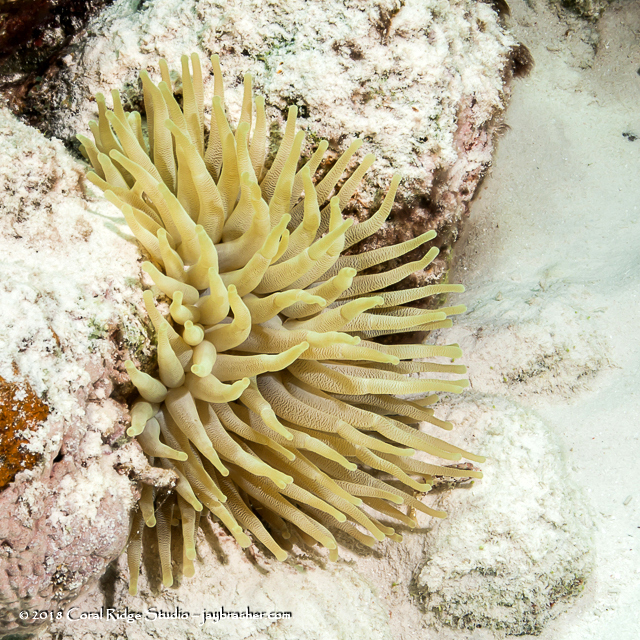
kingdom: Animalia
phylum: Cnidaria
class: Anthozoa
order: Actiniaria
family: Actiniidae
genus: Condylactis
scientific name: Condylactis gigantea
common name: Giant caribbean anemone
